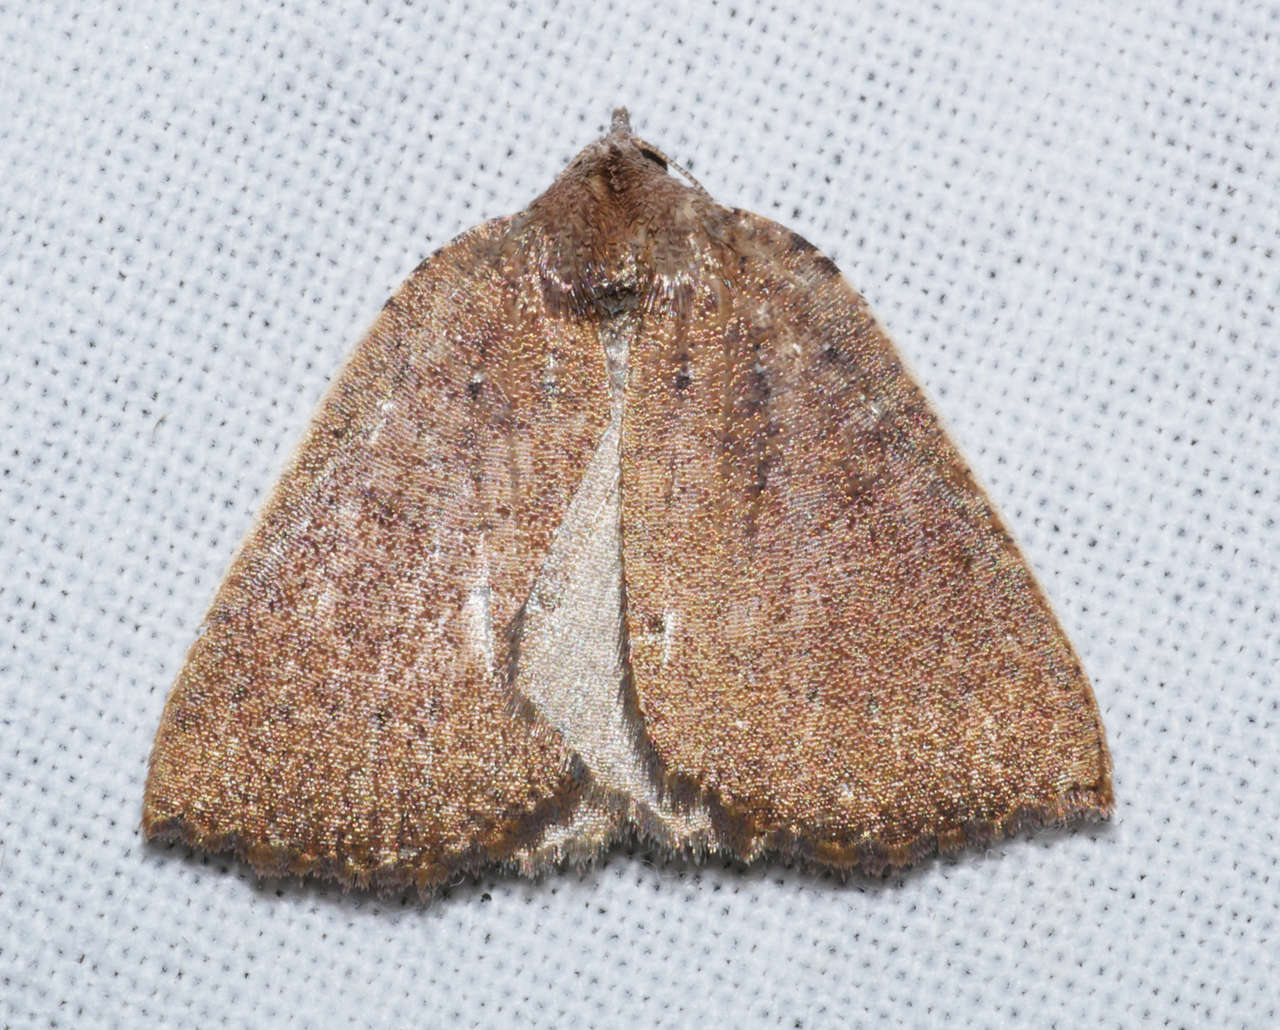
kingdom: Animalia
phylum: Arthropoda
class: Insecta
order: Lepidoptera
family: Geometridae
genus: Authaemon
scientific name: Authaemon stenonipha
